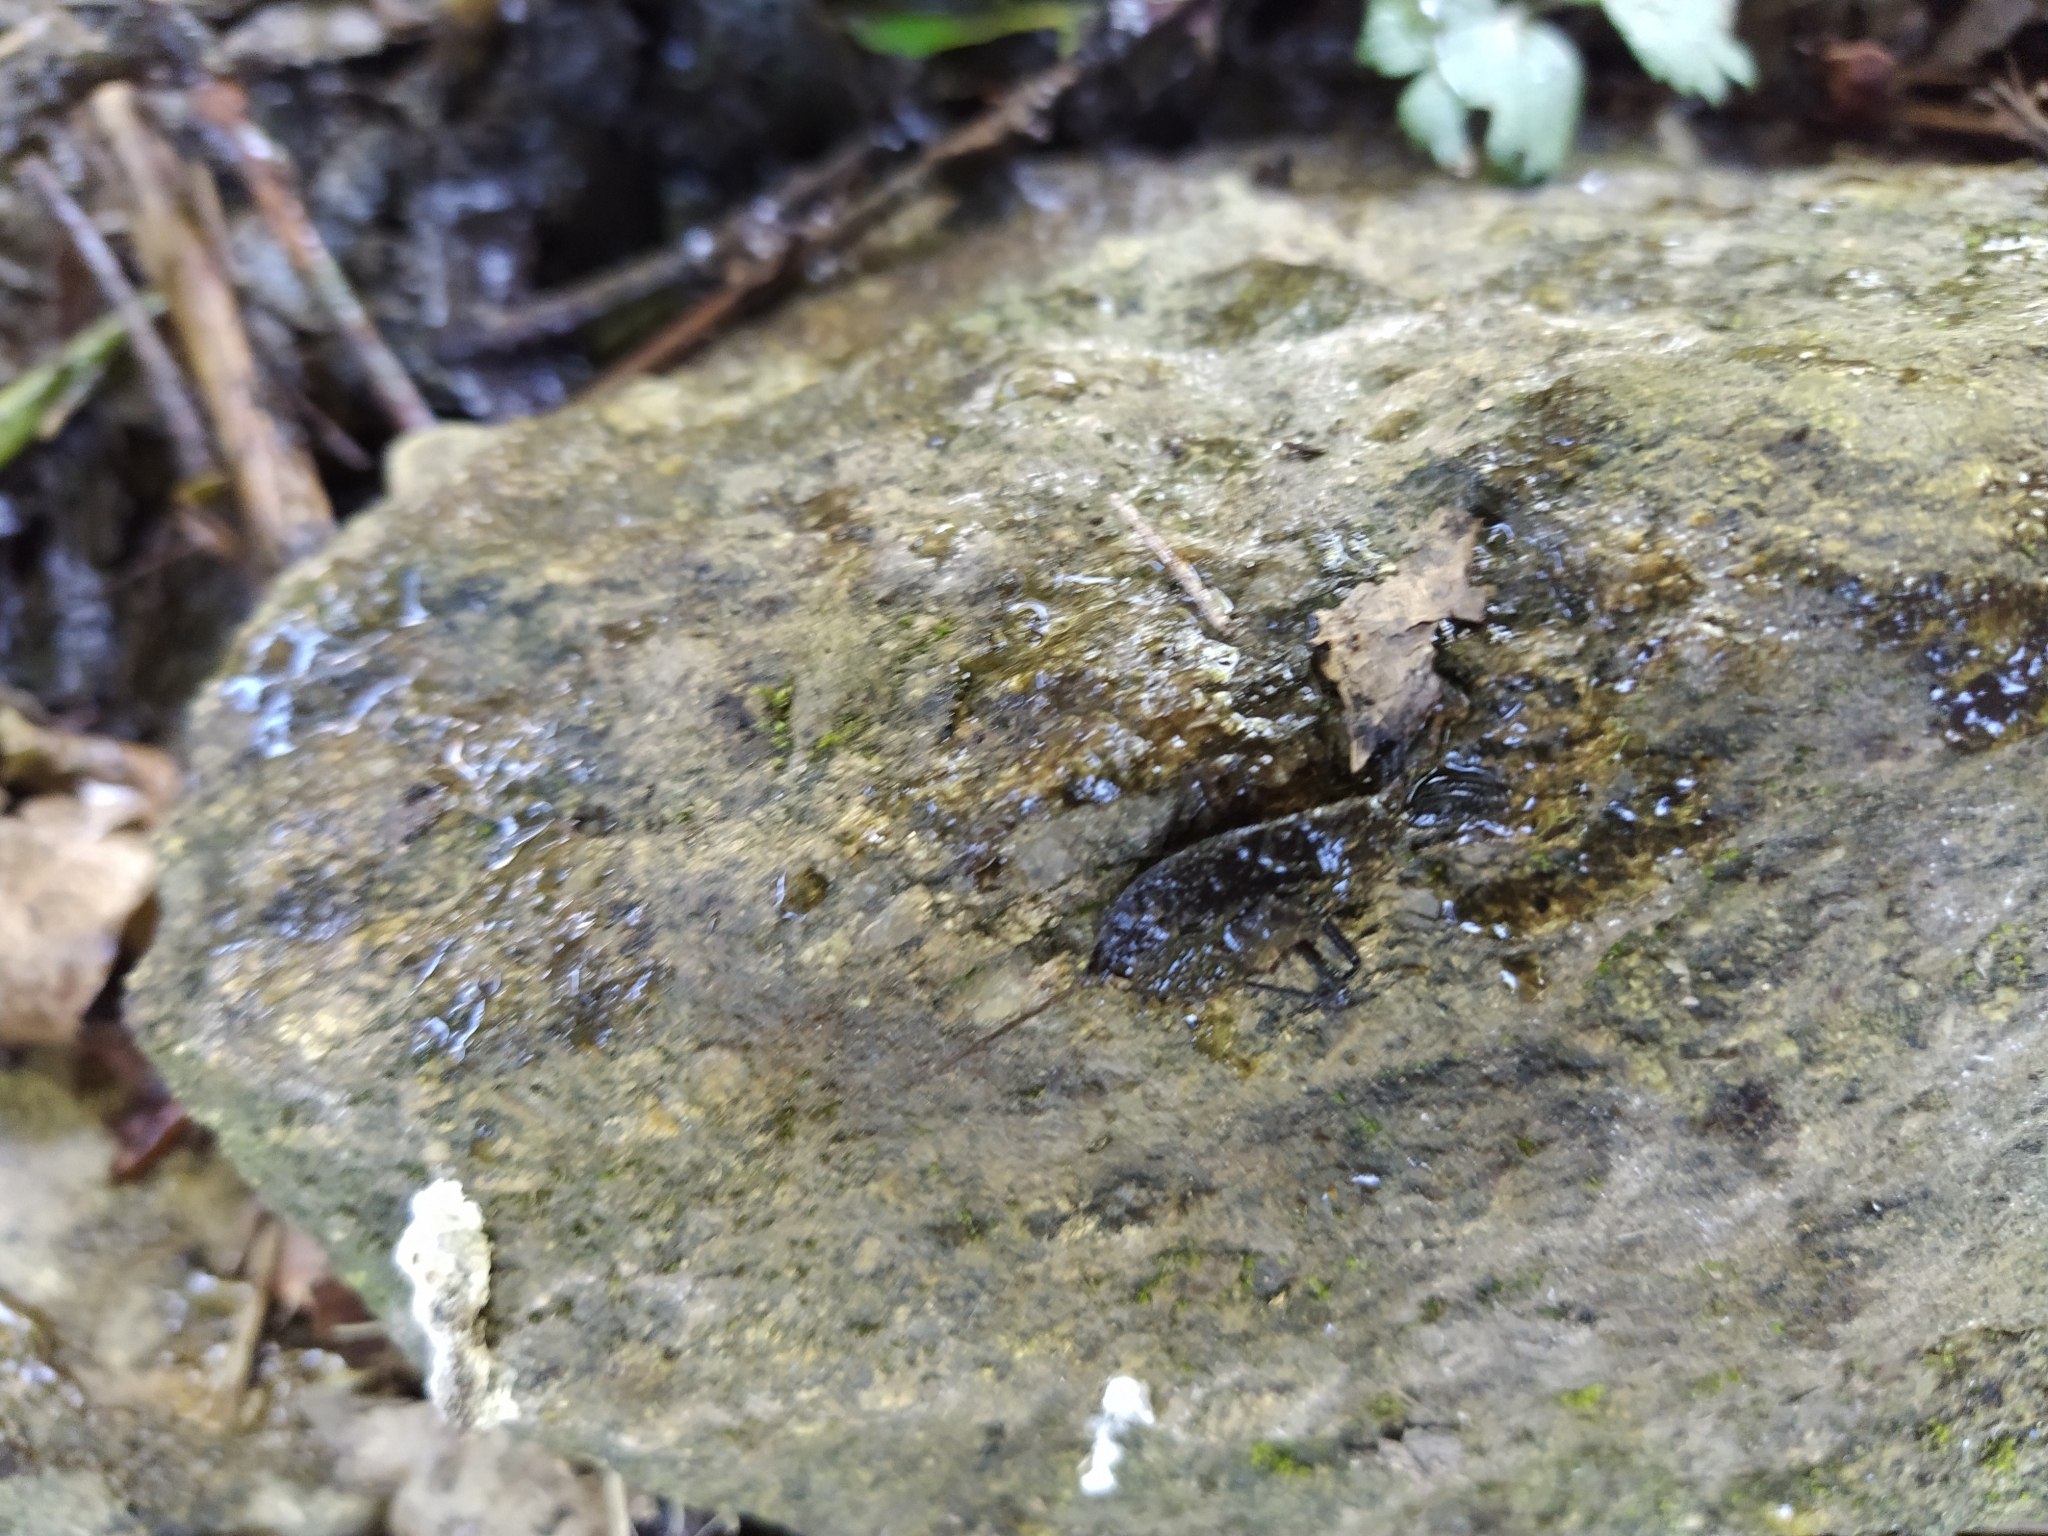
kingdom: Animalia
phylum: Arthropoda
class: Insecta
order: Hemiptera
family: Nepidae
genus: Nepa
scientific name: Nepa cinerea
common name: Water scorpion
